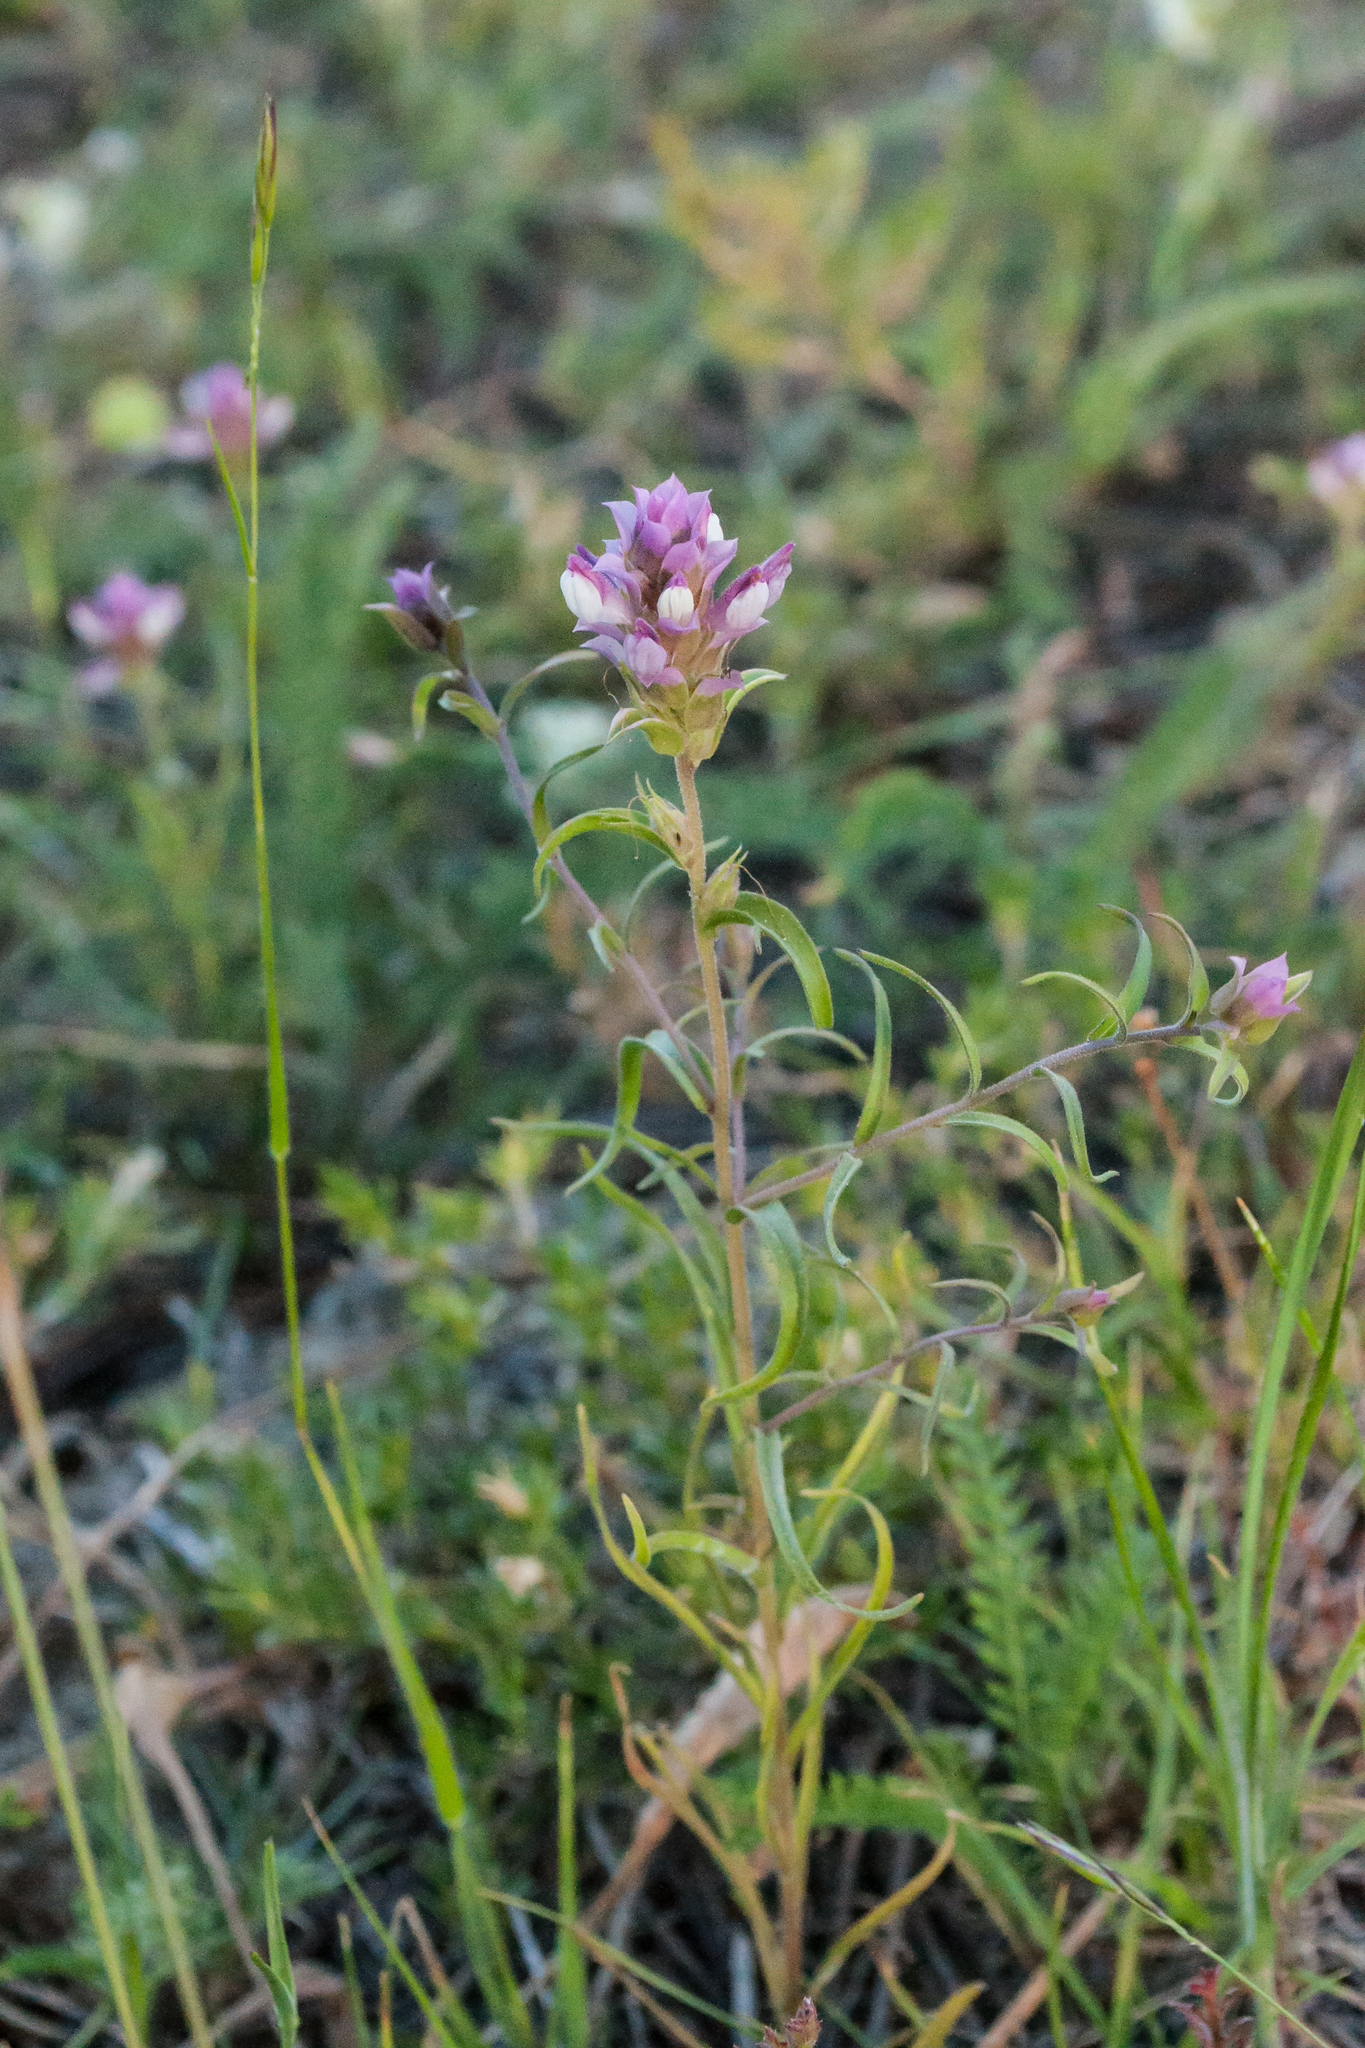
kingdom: Plantae
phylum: Tracheophyta
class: Magnoliopsida
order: Lamiales
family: Orobanchaceae
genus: Orthocarpus
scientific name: Orthocarpus cuspidatus
